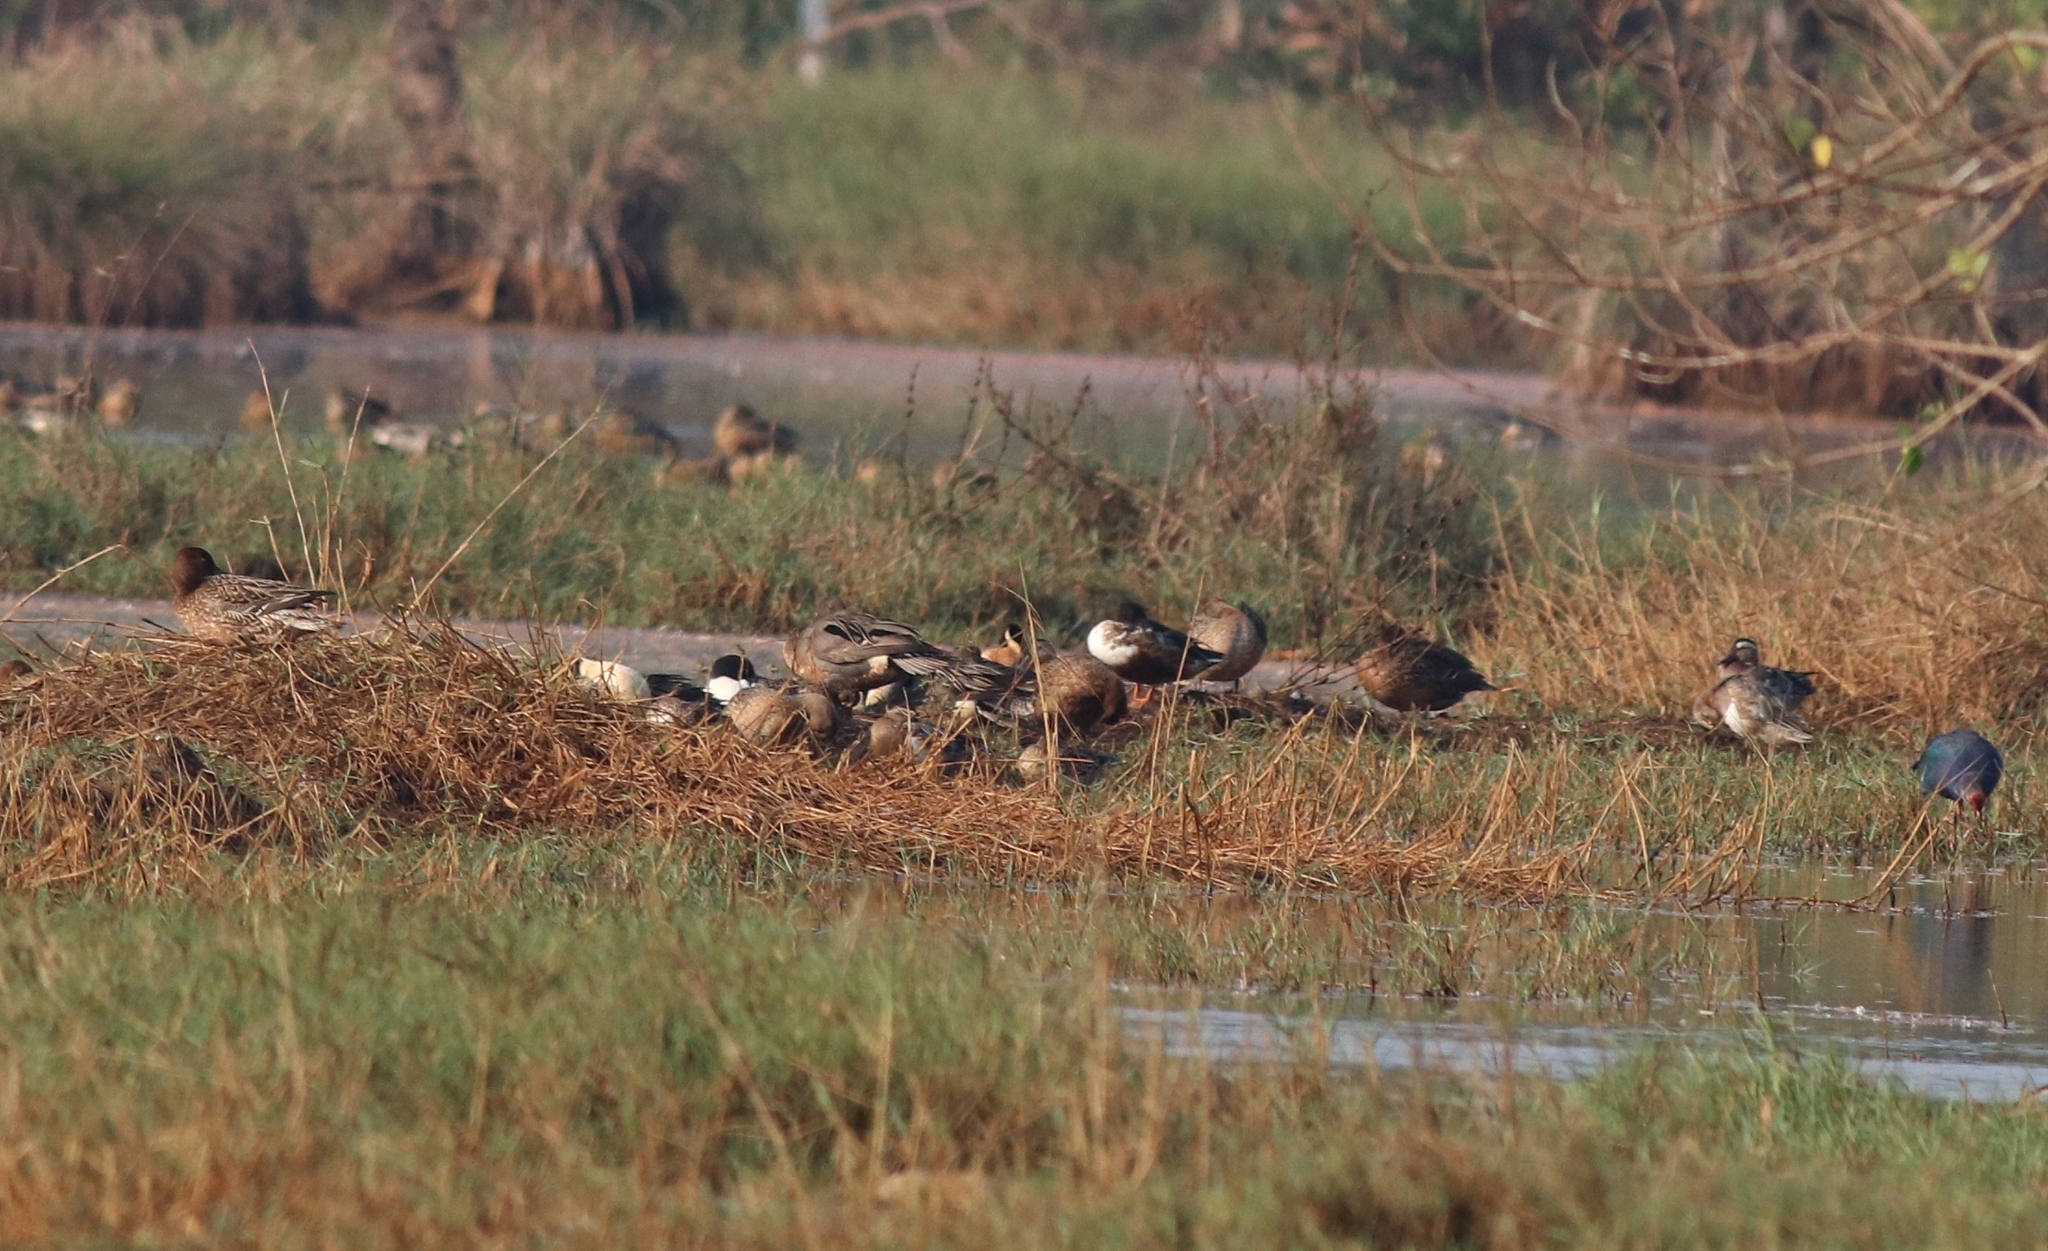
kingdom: Animalia
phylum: Chordata
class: Aves
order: Anseriformes
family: Anatidae
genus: Spatula
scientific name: Spatula querquedula
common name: Garganey
